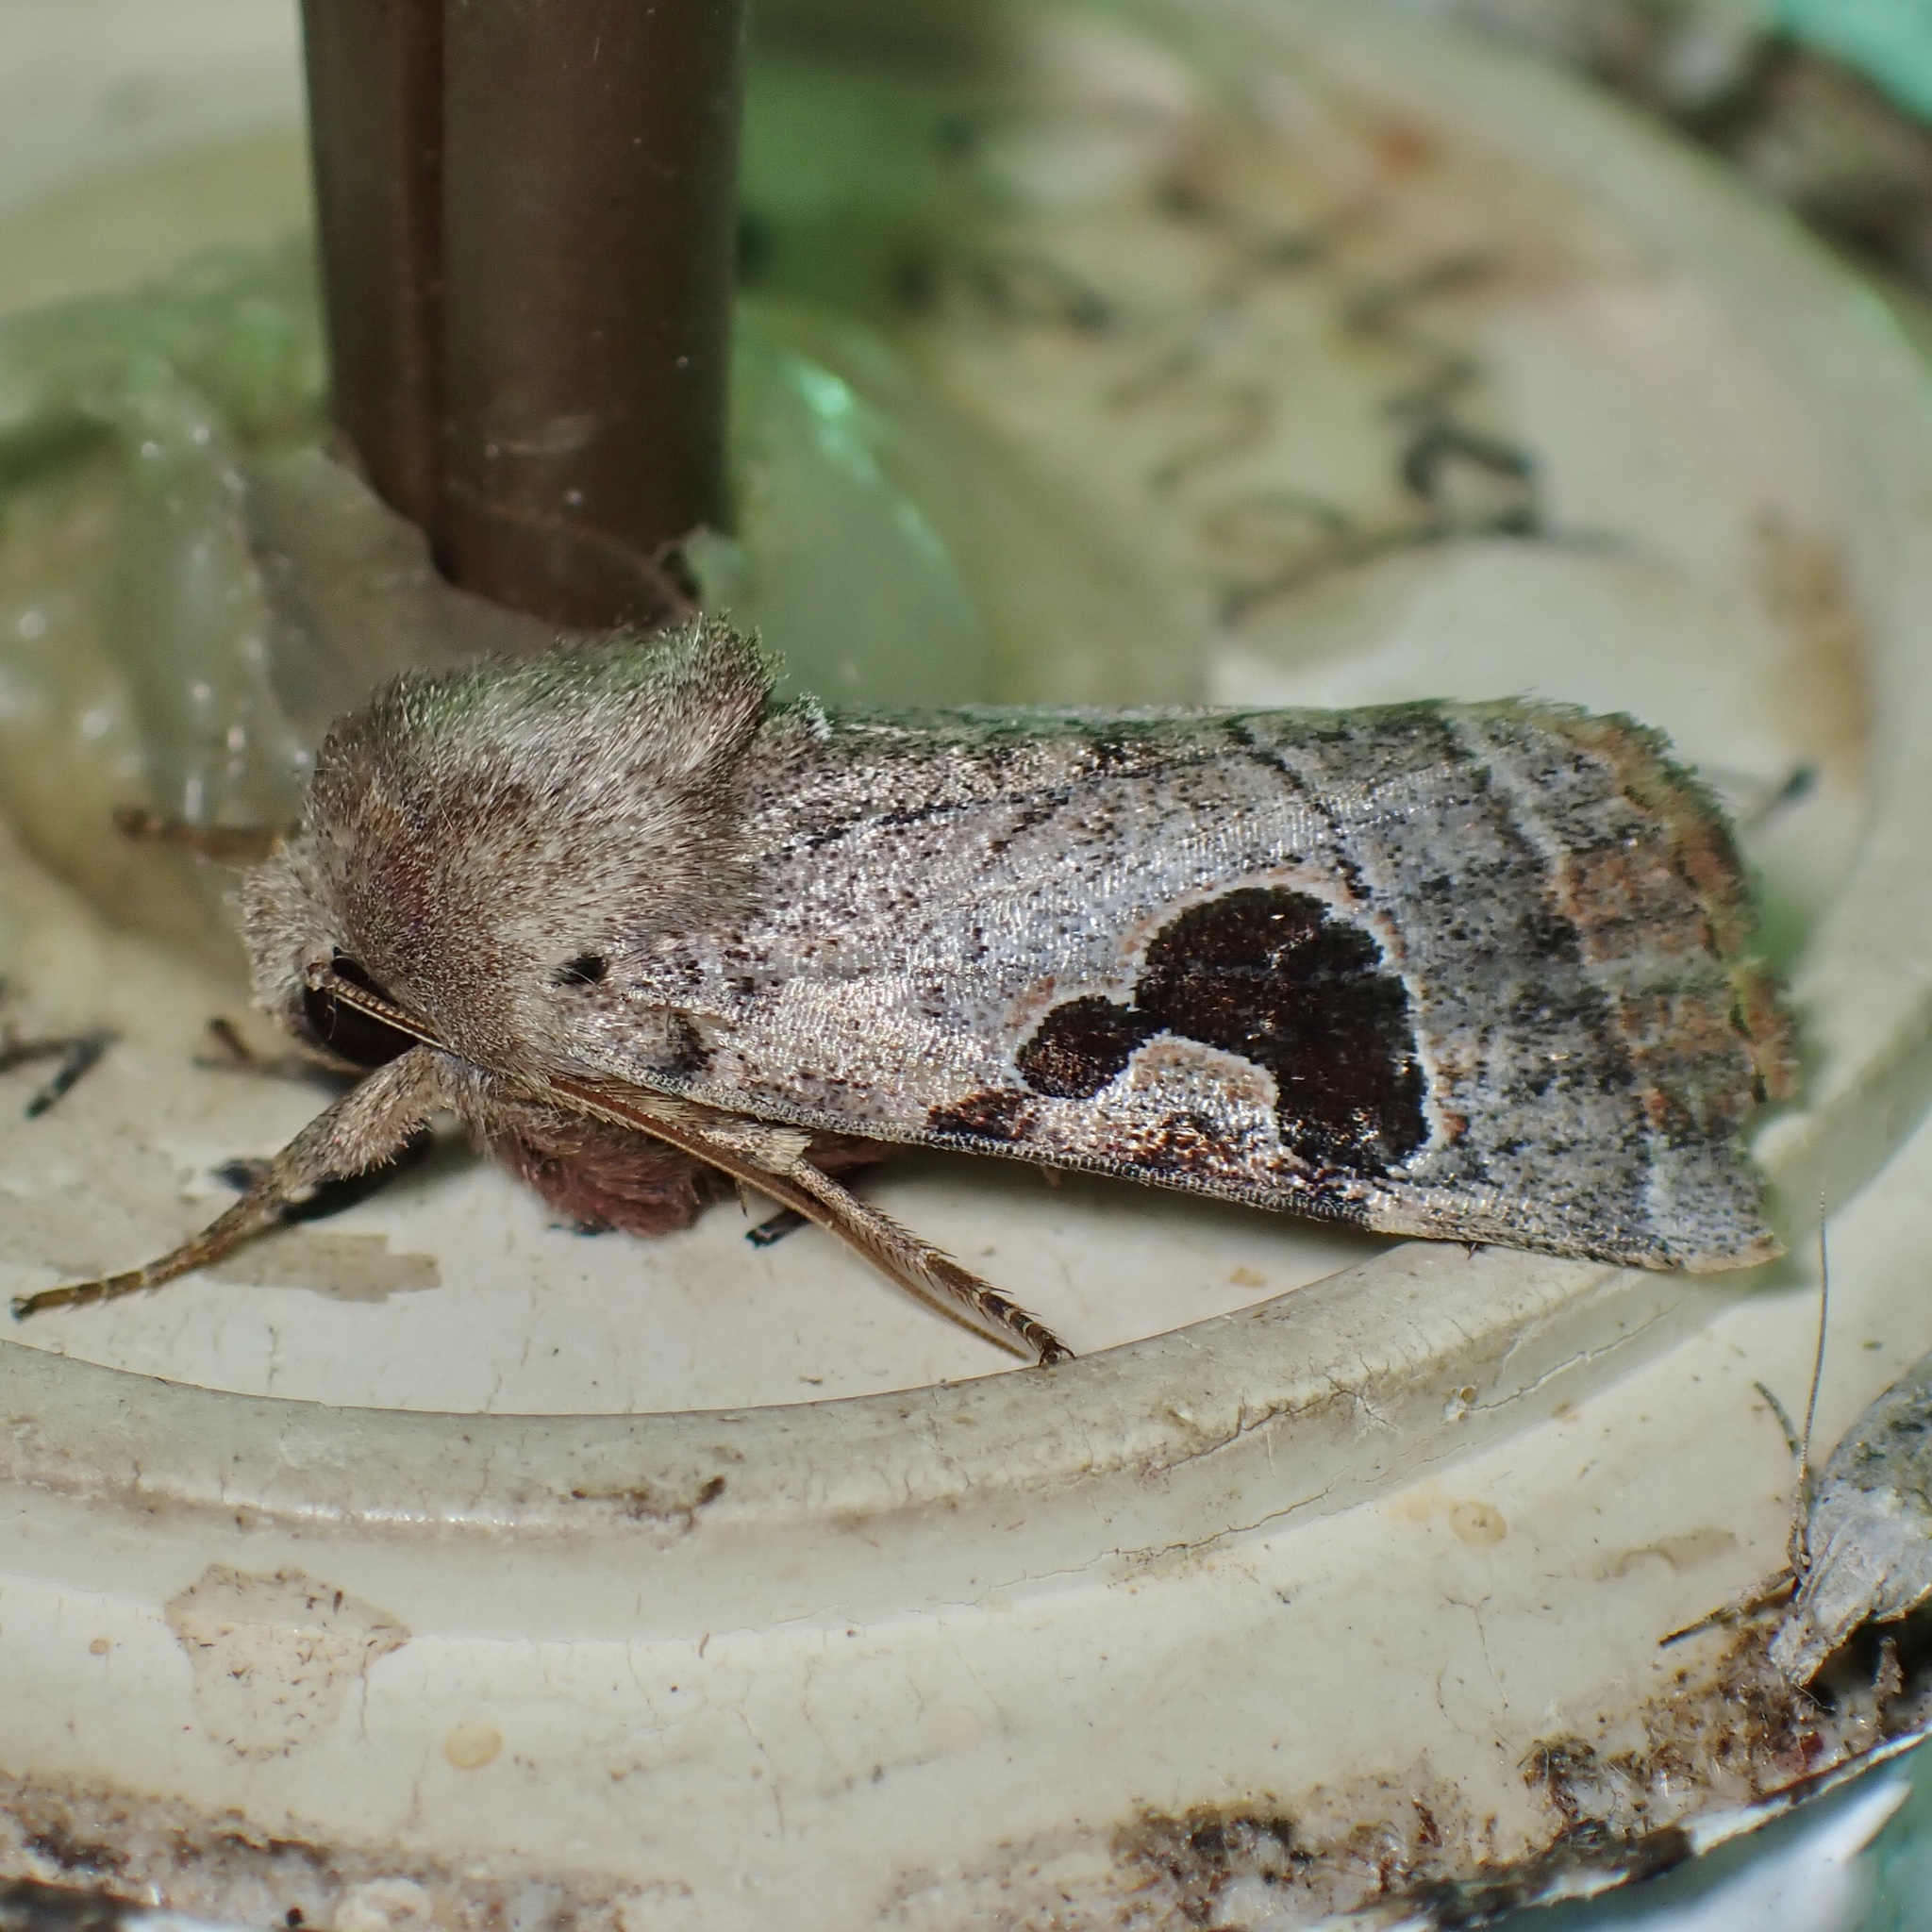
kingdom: Animalia
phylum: Arthropoda
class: Insecta
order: Lepidoptera
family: Noctuidae
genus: Eriopyga
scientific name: Eriopyga lunata
